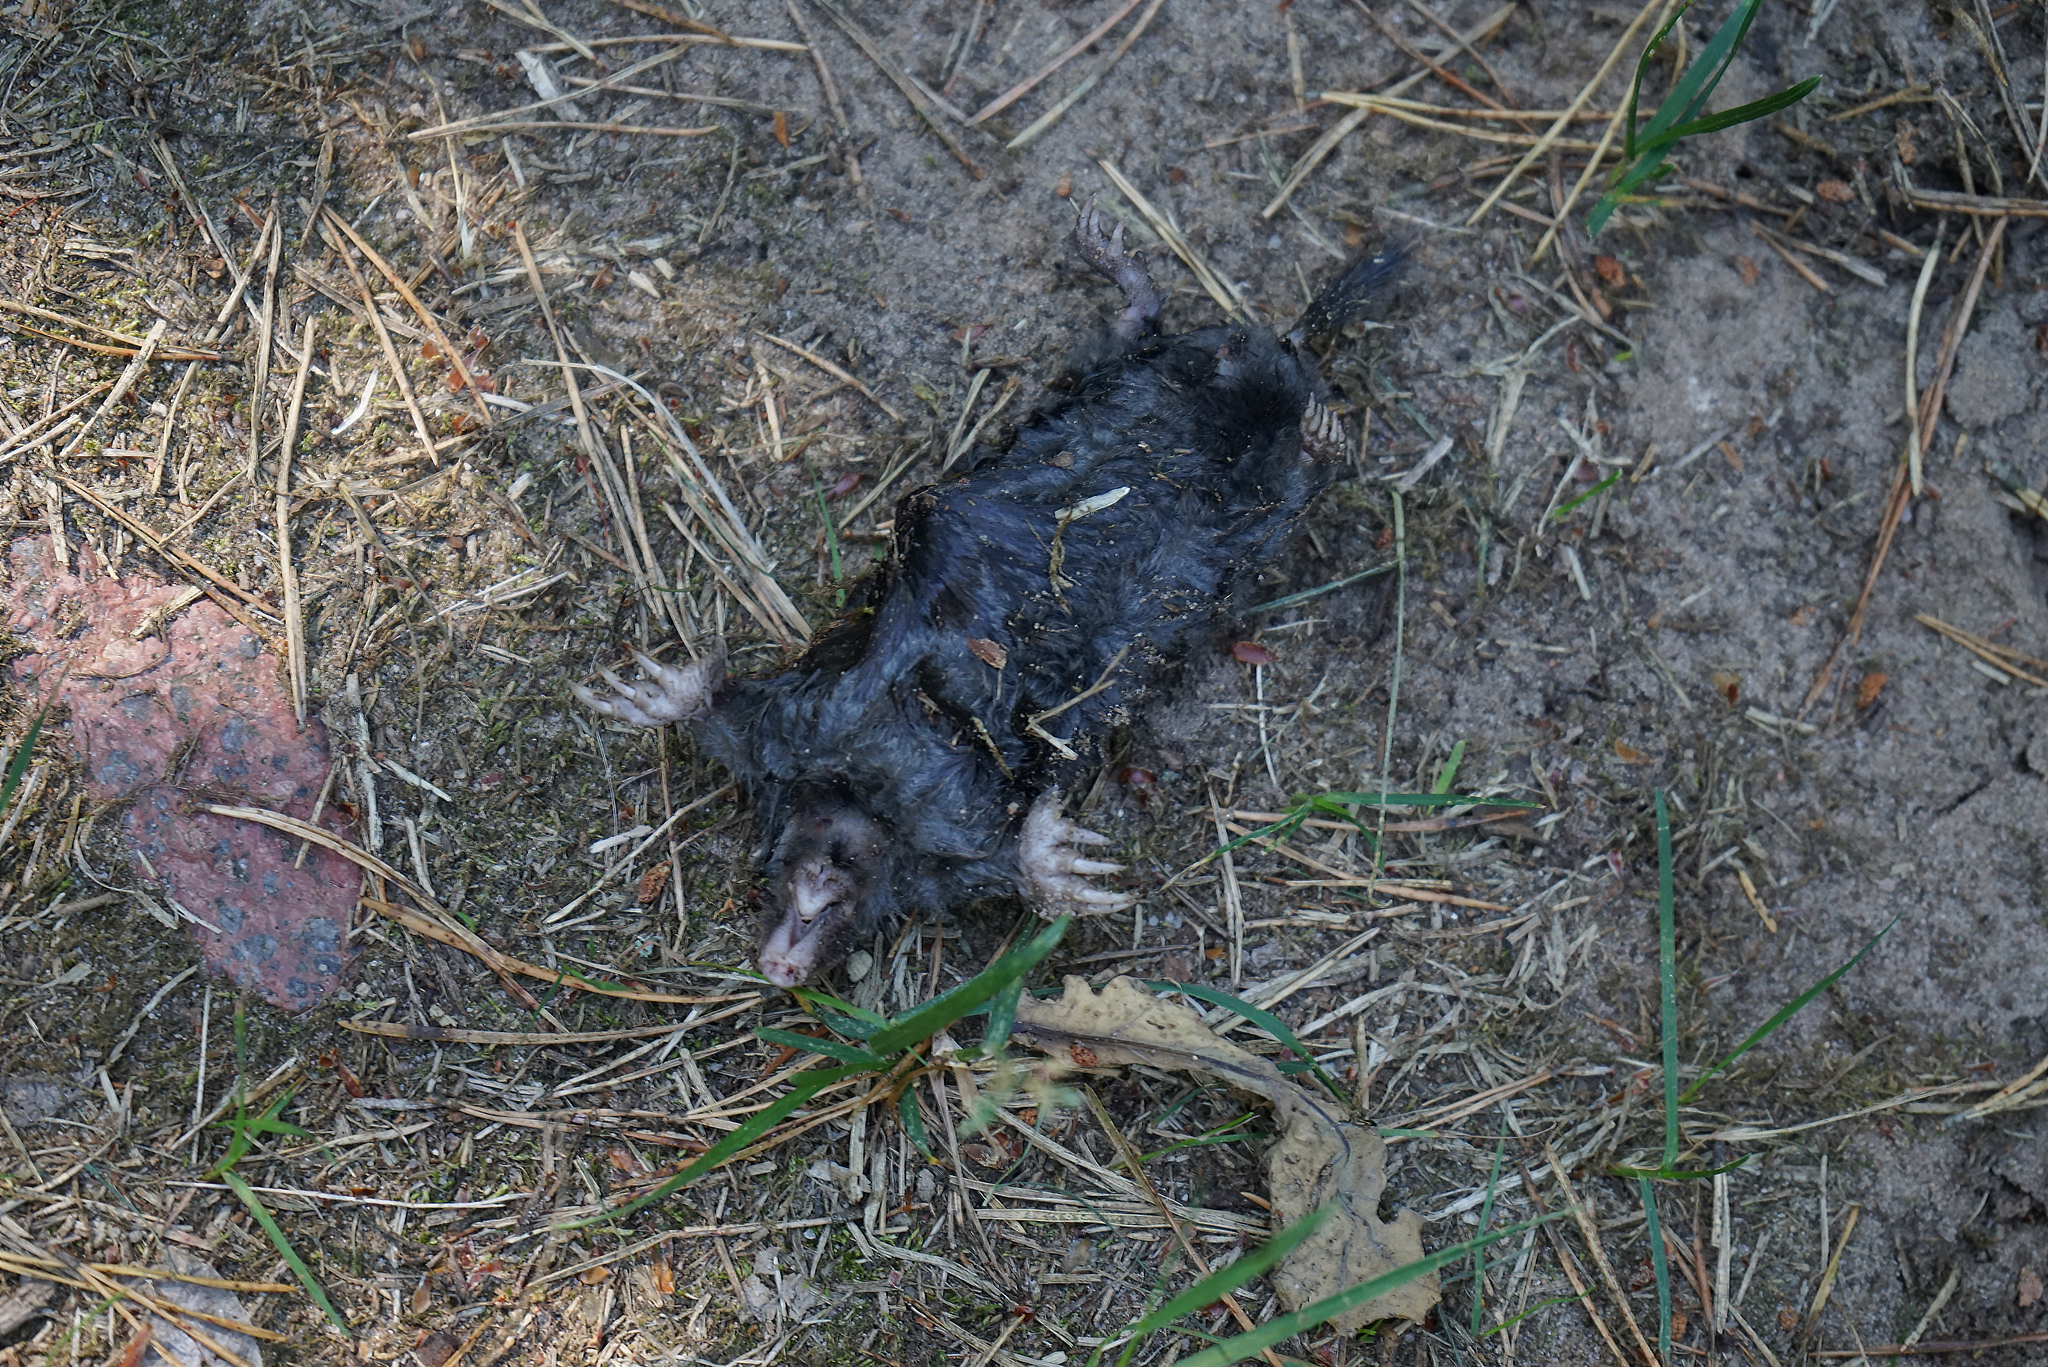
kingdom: Animalia
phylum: Chordata
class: Mammalia
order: Soricomorpha
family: Talpidae
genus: Talpa
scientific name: Talpa europaea
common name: European mole
